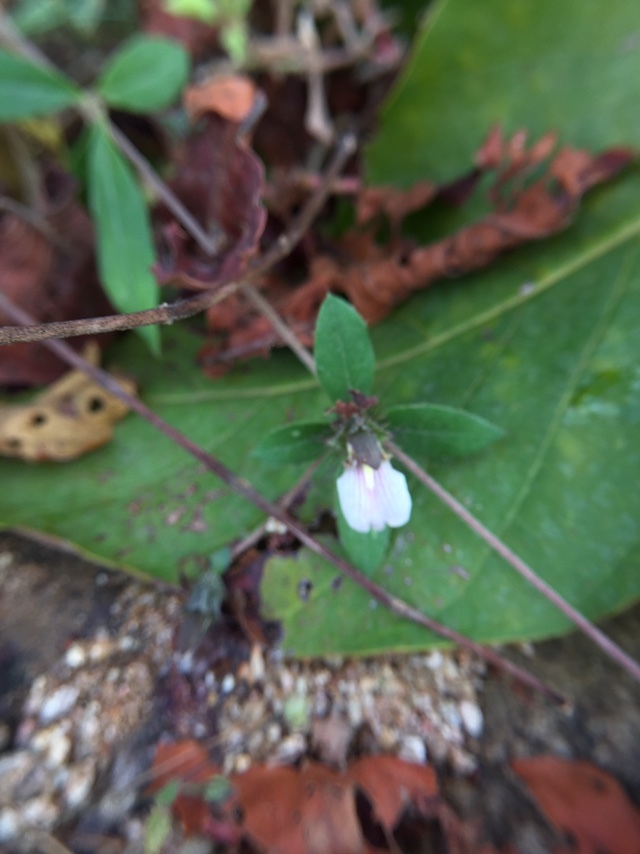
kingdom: Plantae
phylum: Tracheophyta
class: Magnoliopsida
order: Lamiales
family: Acanthaceae
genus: Blepharis
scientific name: Blepharis maderaspatensis
